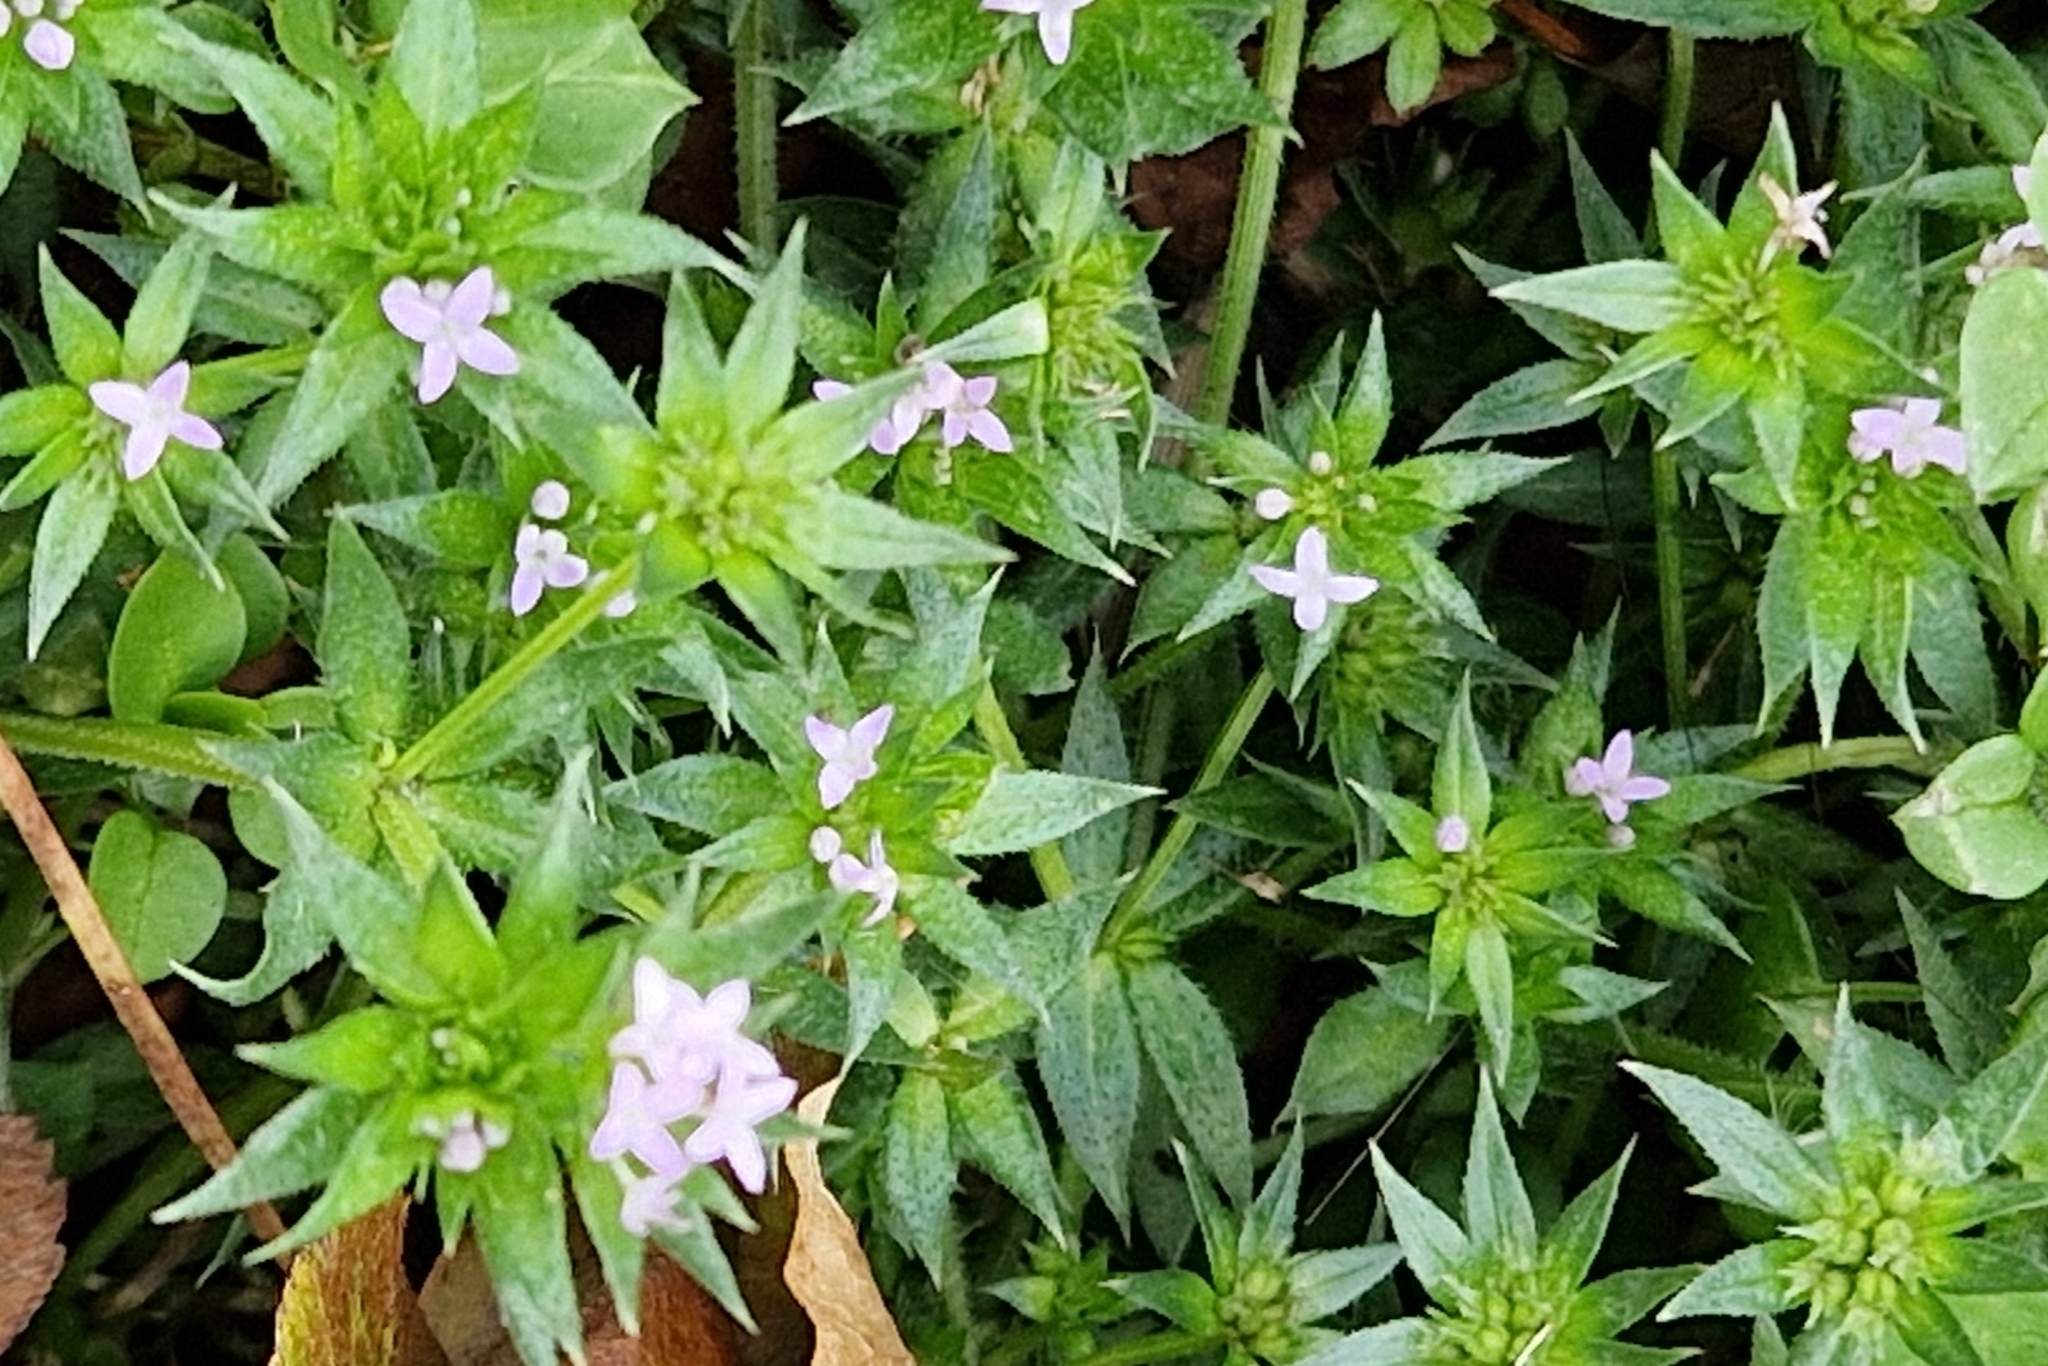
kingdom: Plantae
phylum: Tracheophyta
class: Magnoliopsida
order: Gentianales
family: Rubiaceae
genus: Sherardia
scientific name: Sherardia arvensis
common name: Field madder
